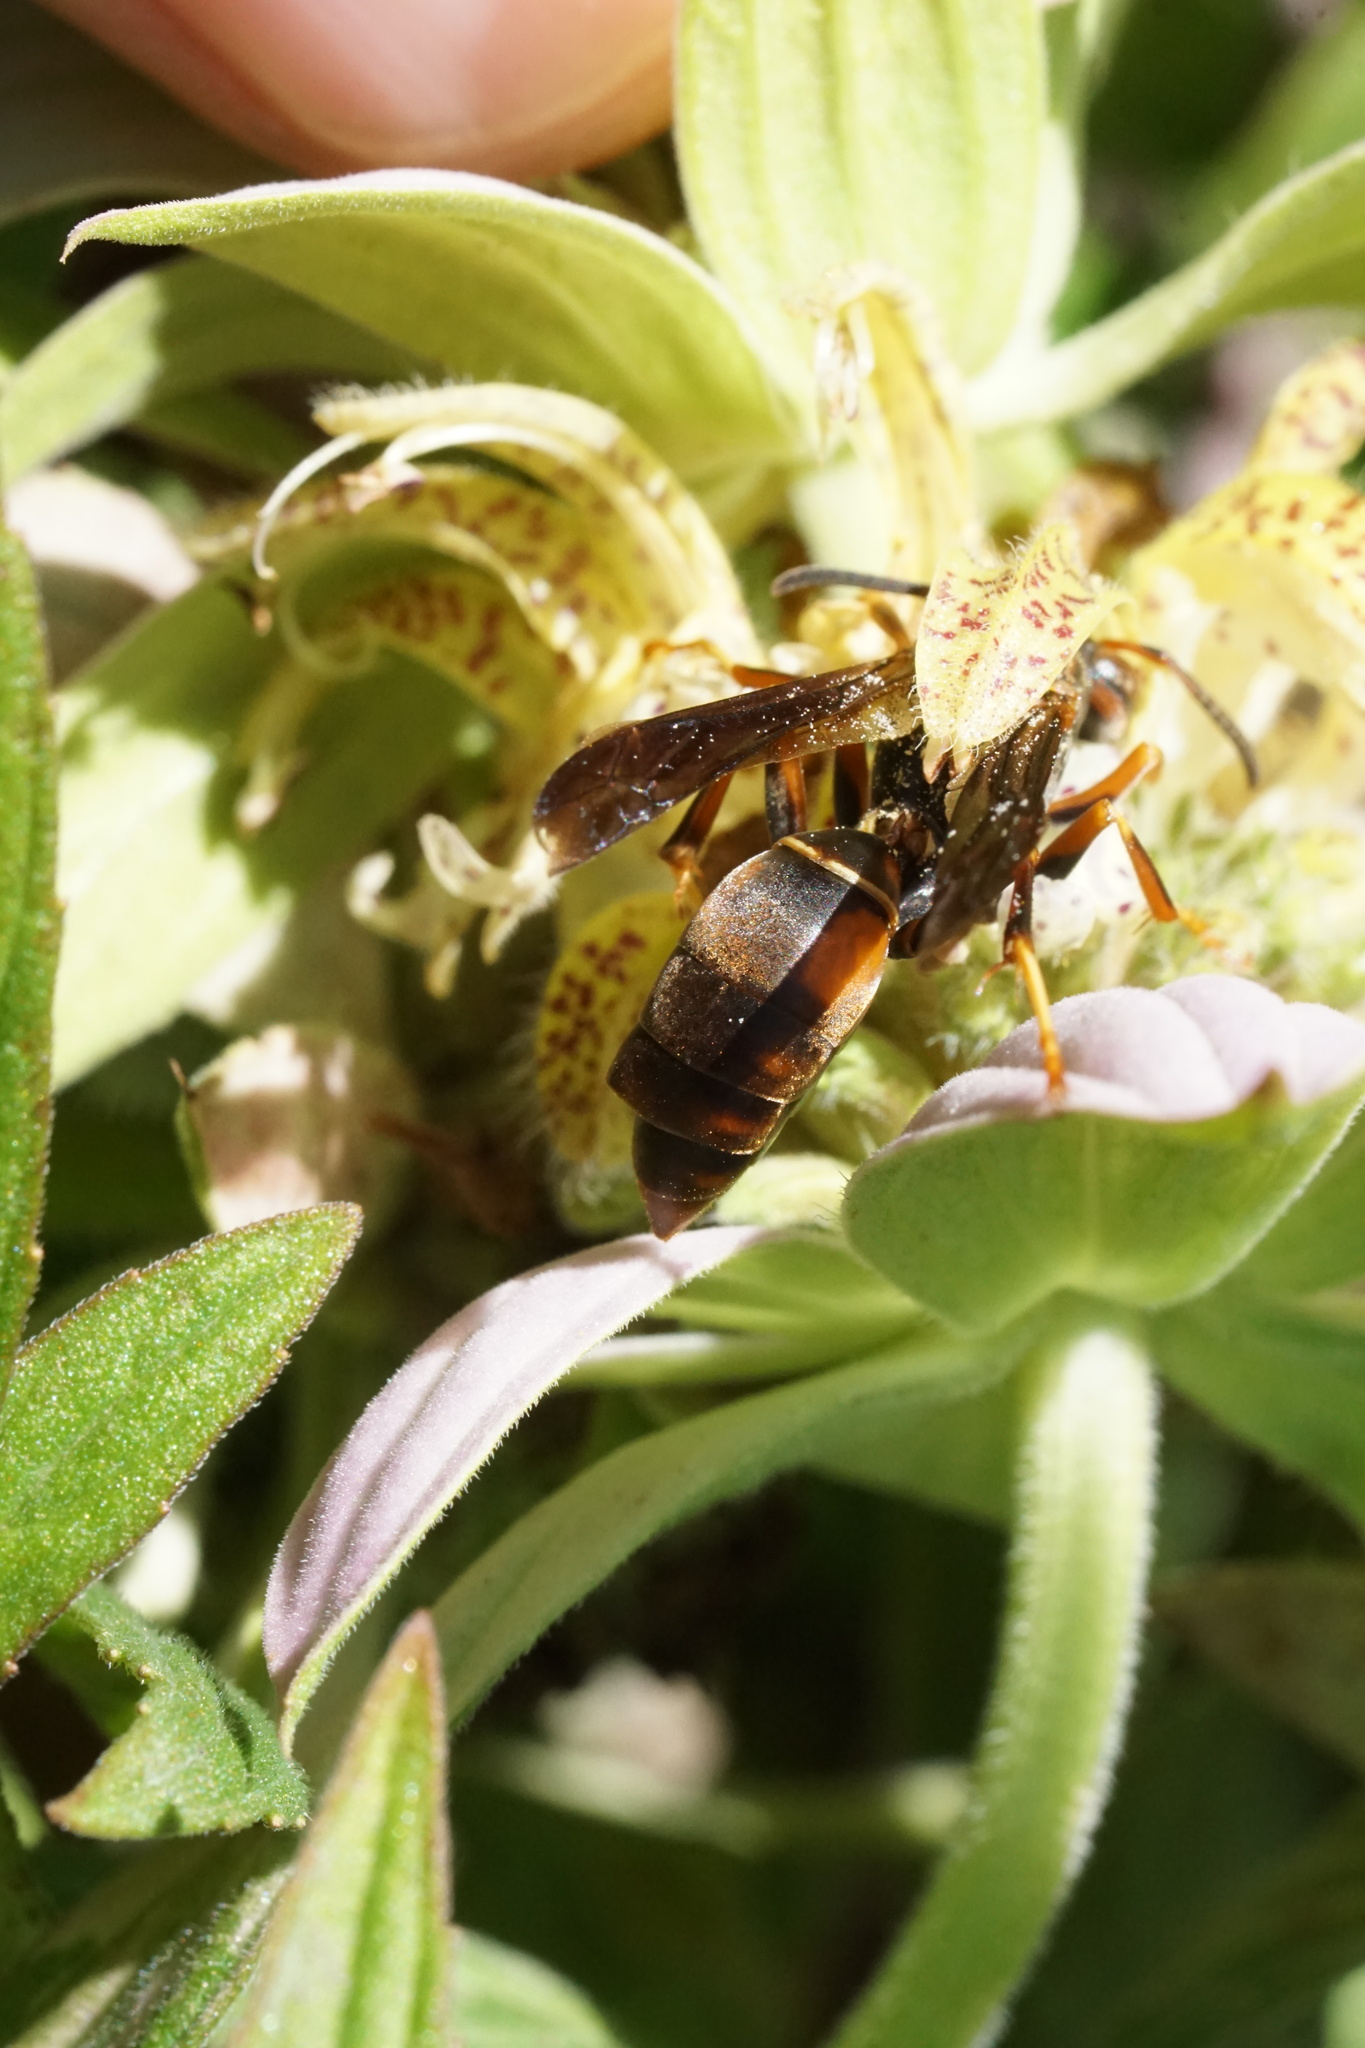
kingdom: Animalia
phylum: Arthropoda
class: Insecta
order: Hymenoptera
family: Eumenidae
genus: Polistes
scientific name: Polistes fuscatus
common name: Dark paper wasp
